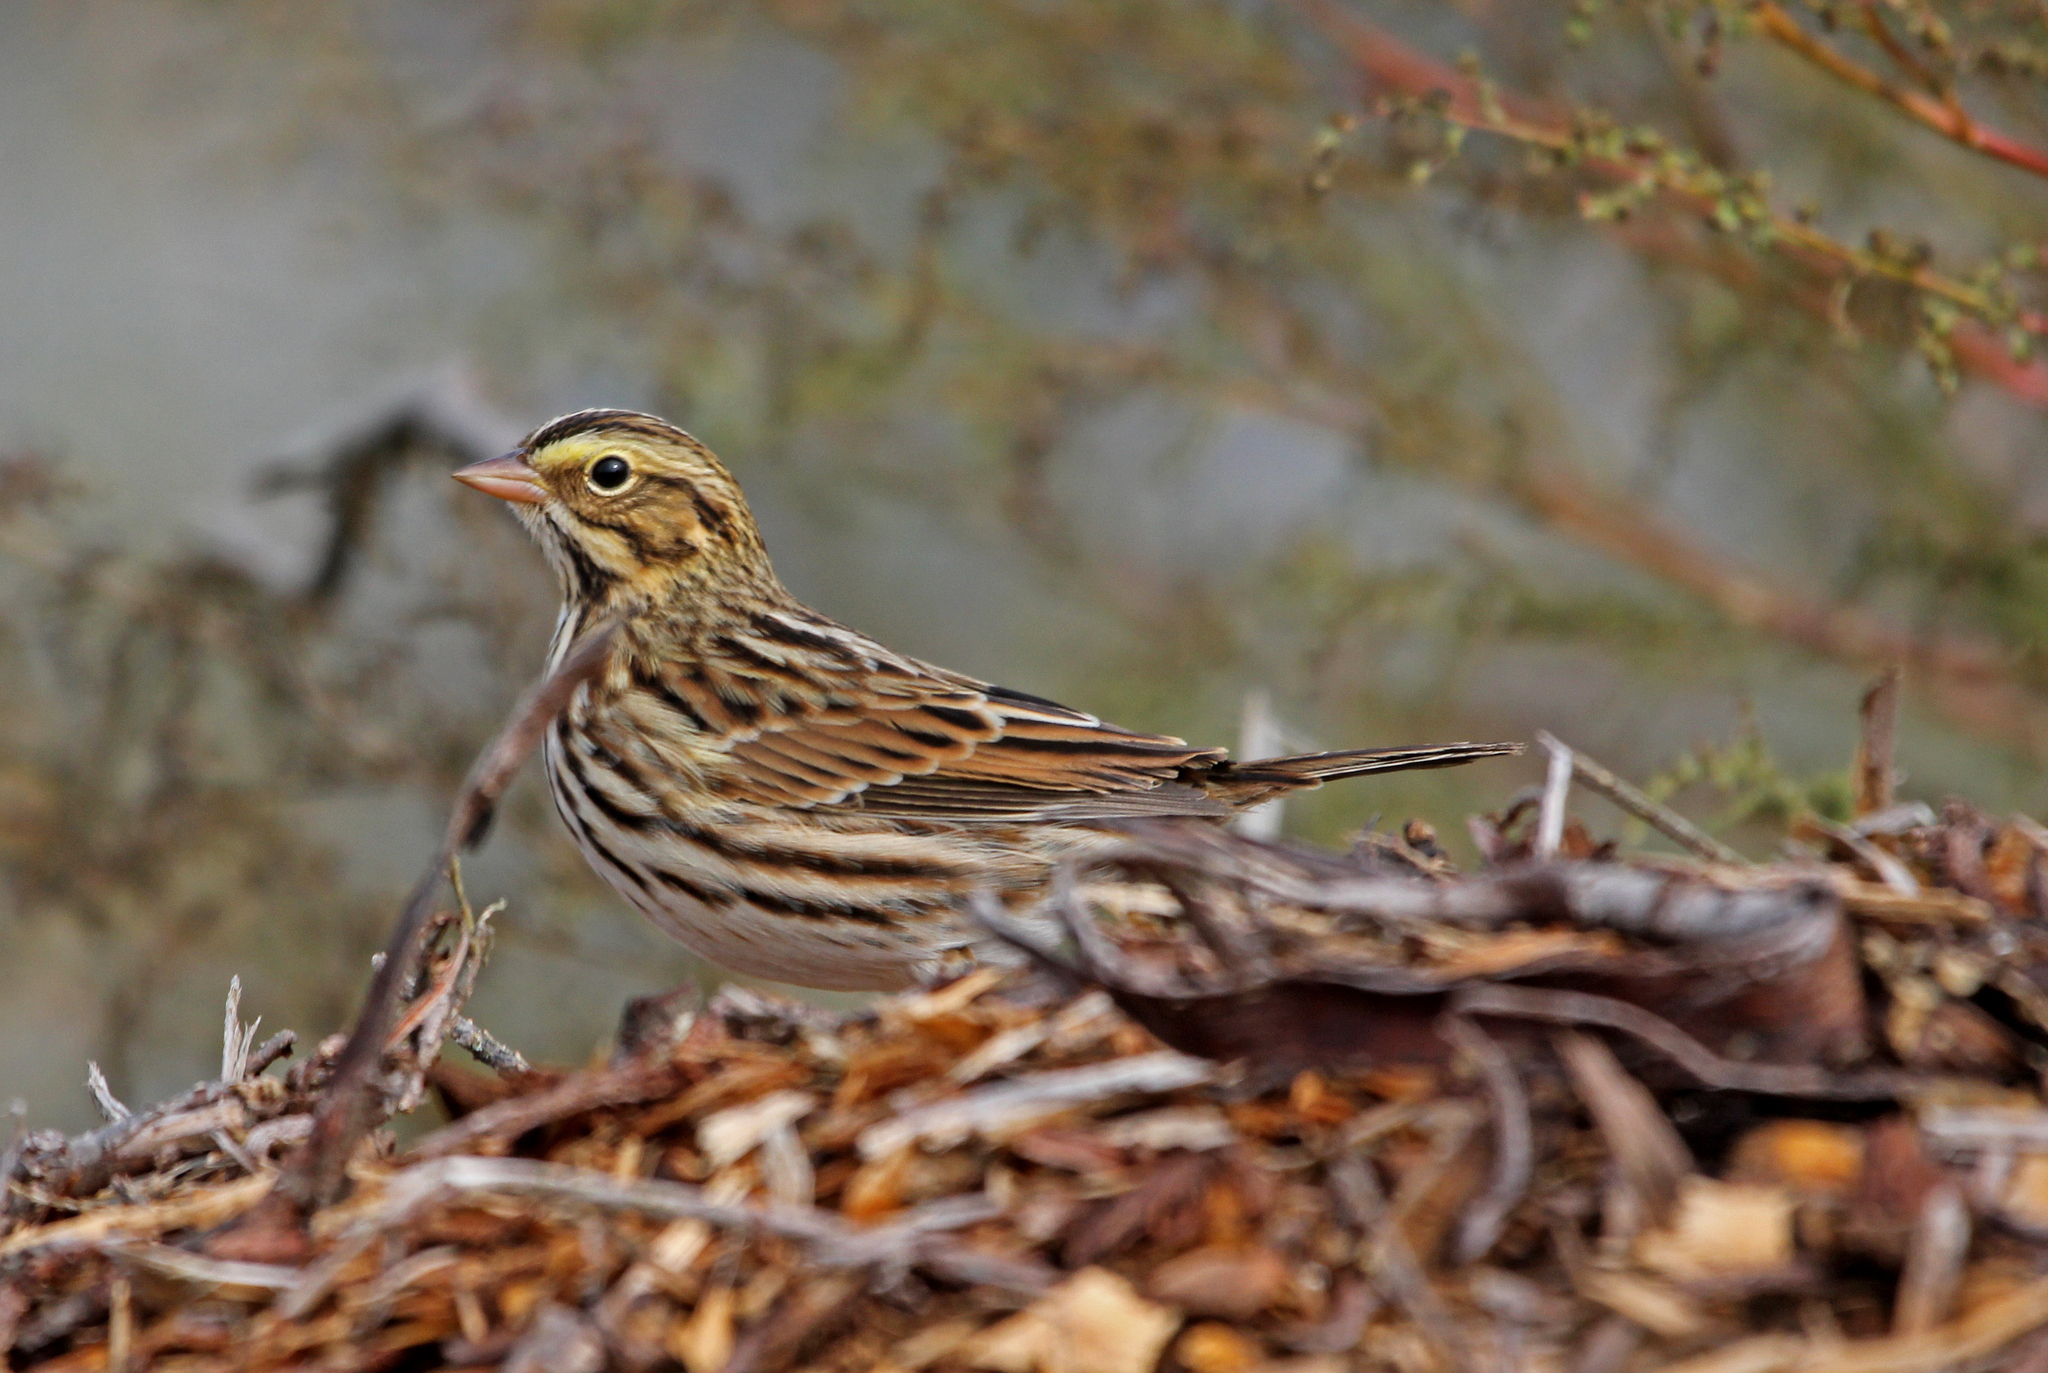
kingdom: Animalia
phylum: Chordata
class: Aves
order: Passeriformes
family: Passerellidae
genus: Passerculus
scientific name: Passerculus sandwichensis
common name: Savannah sparrow
